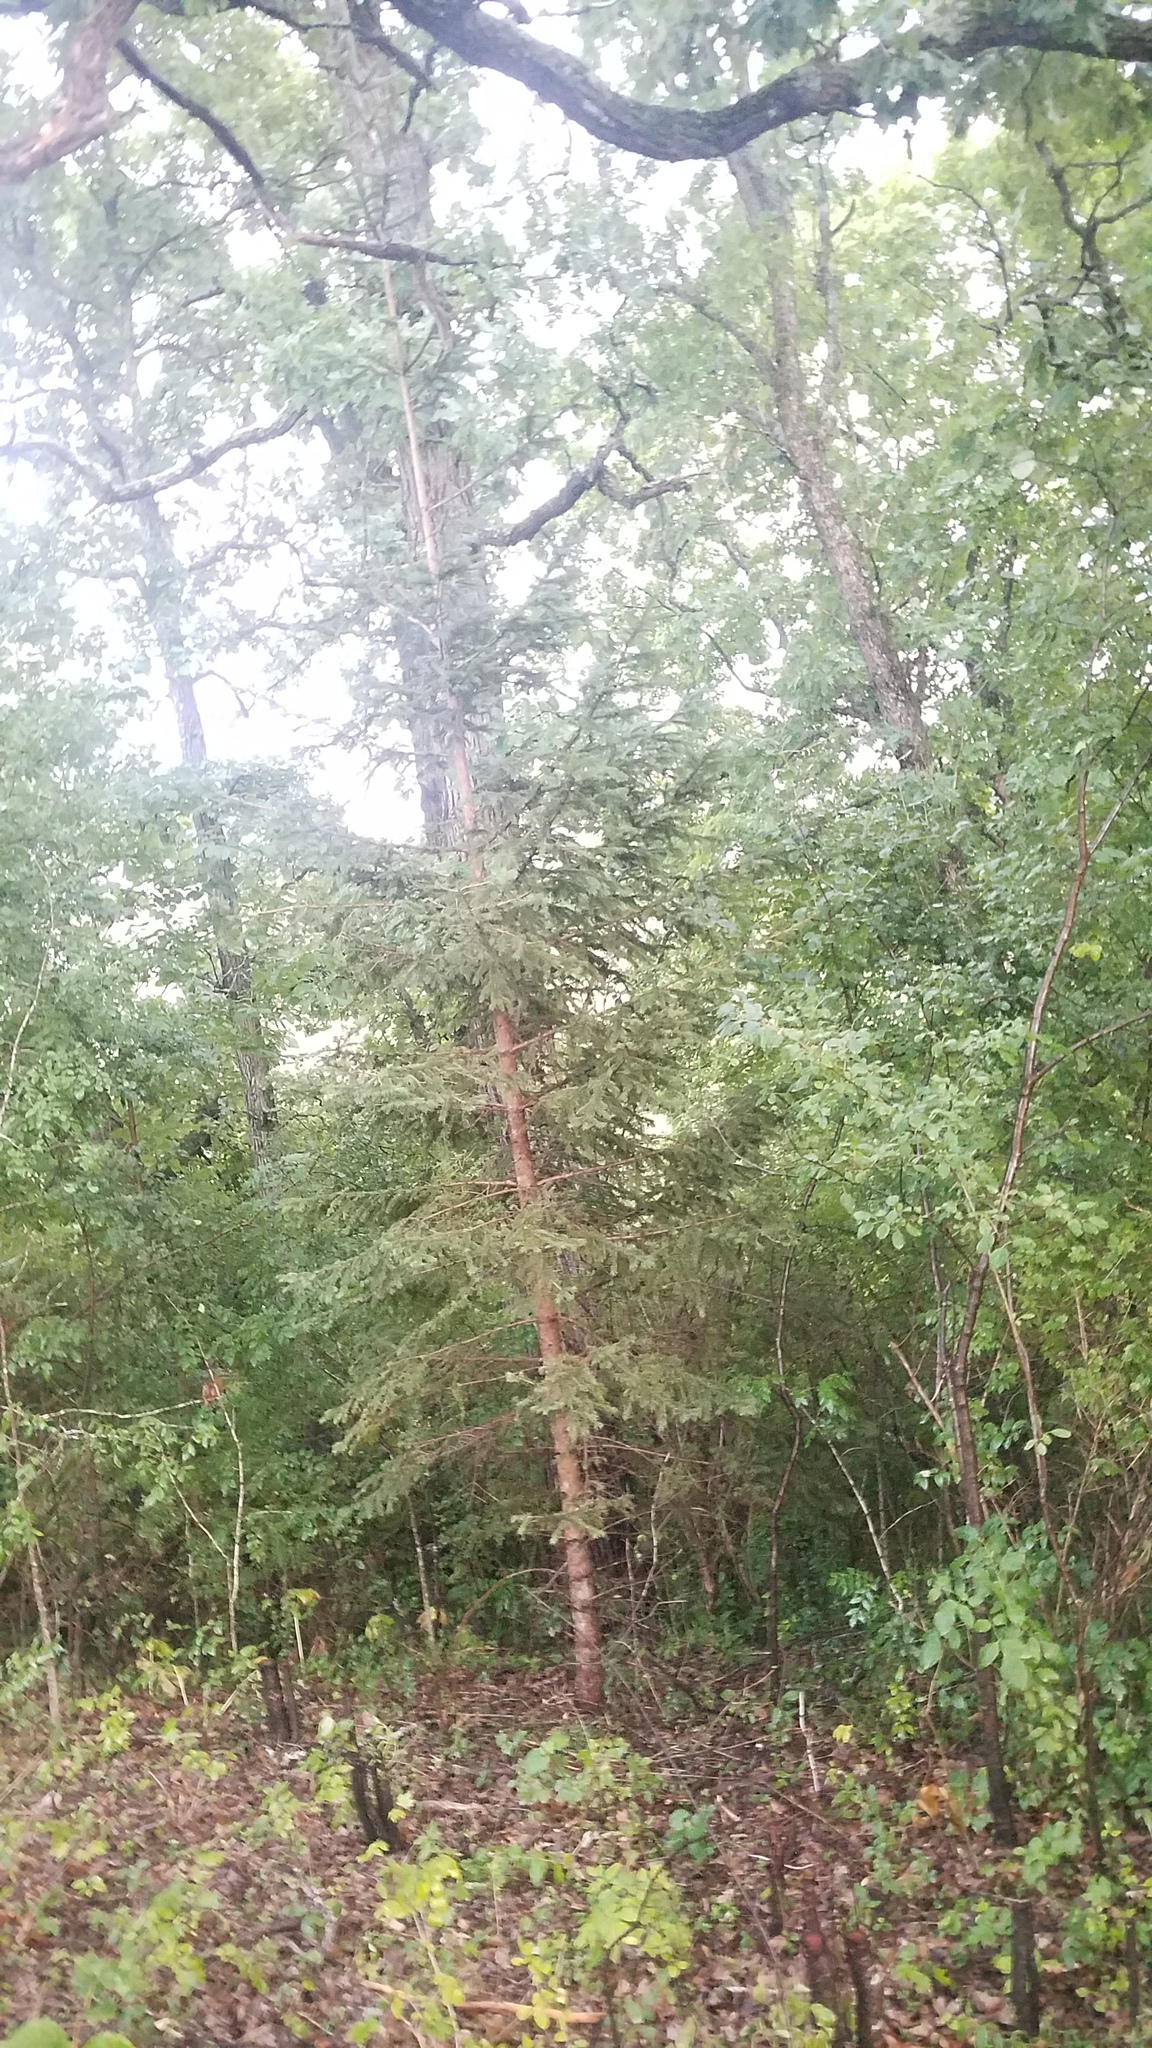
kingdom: Plantae
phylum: Tracheophyta
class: Pinopsida
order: Pinales
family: Pinaceae
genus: Picea
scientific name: Picea glauca
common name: White spruce
